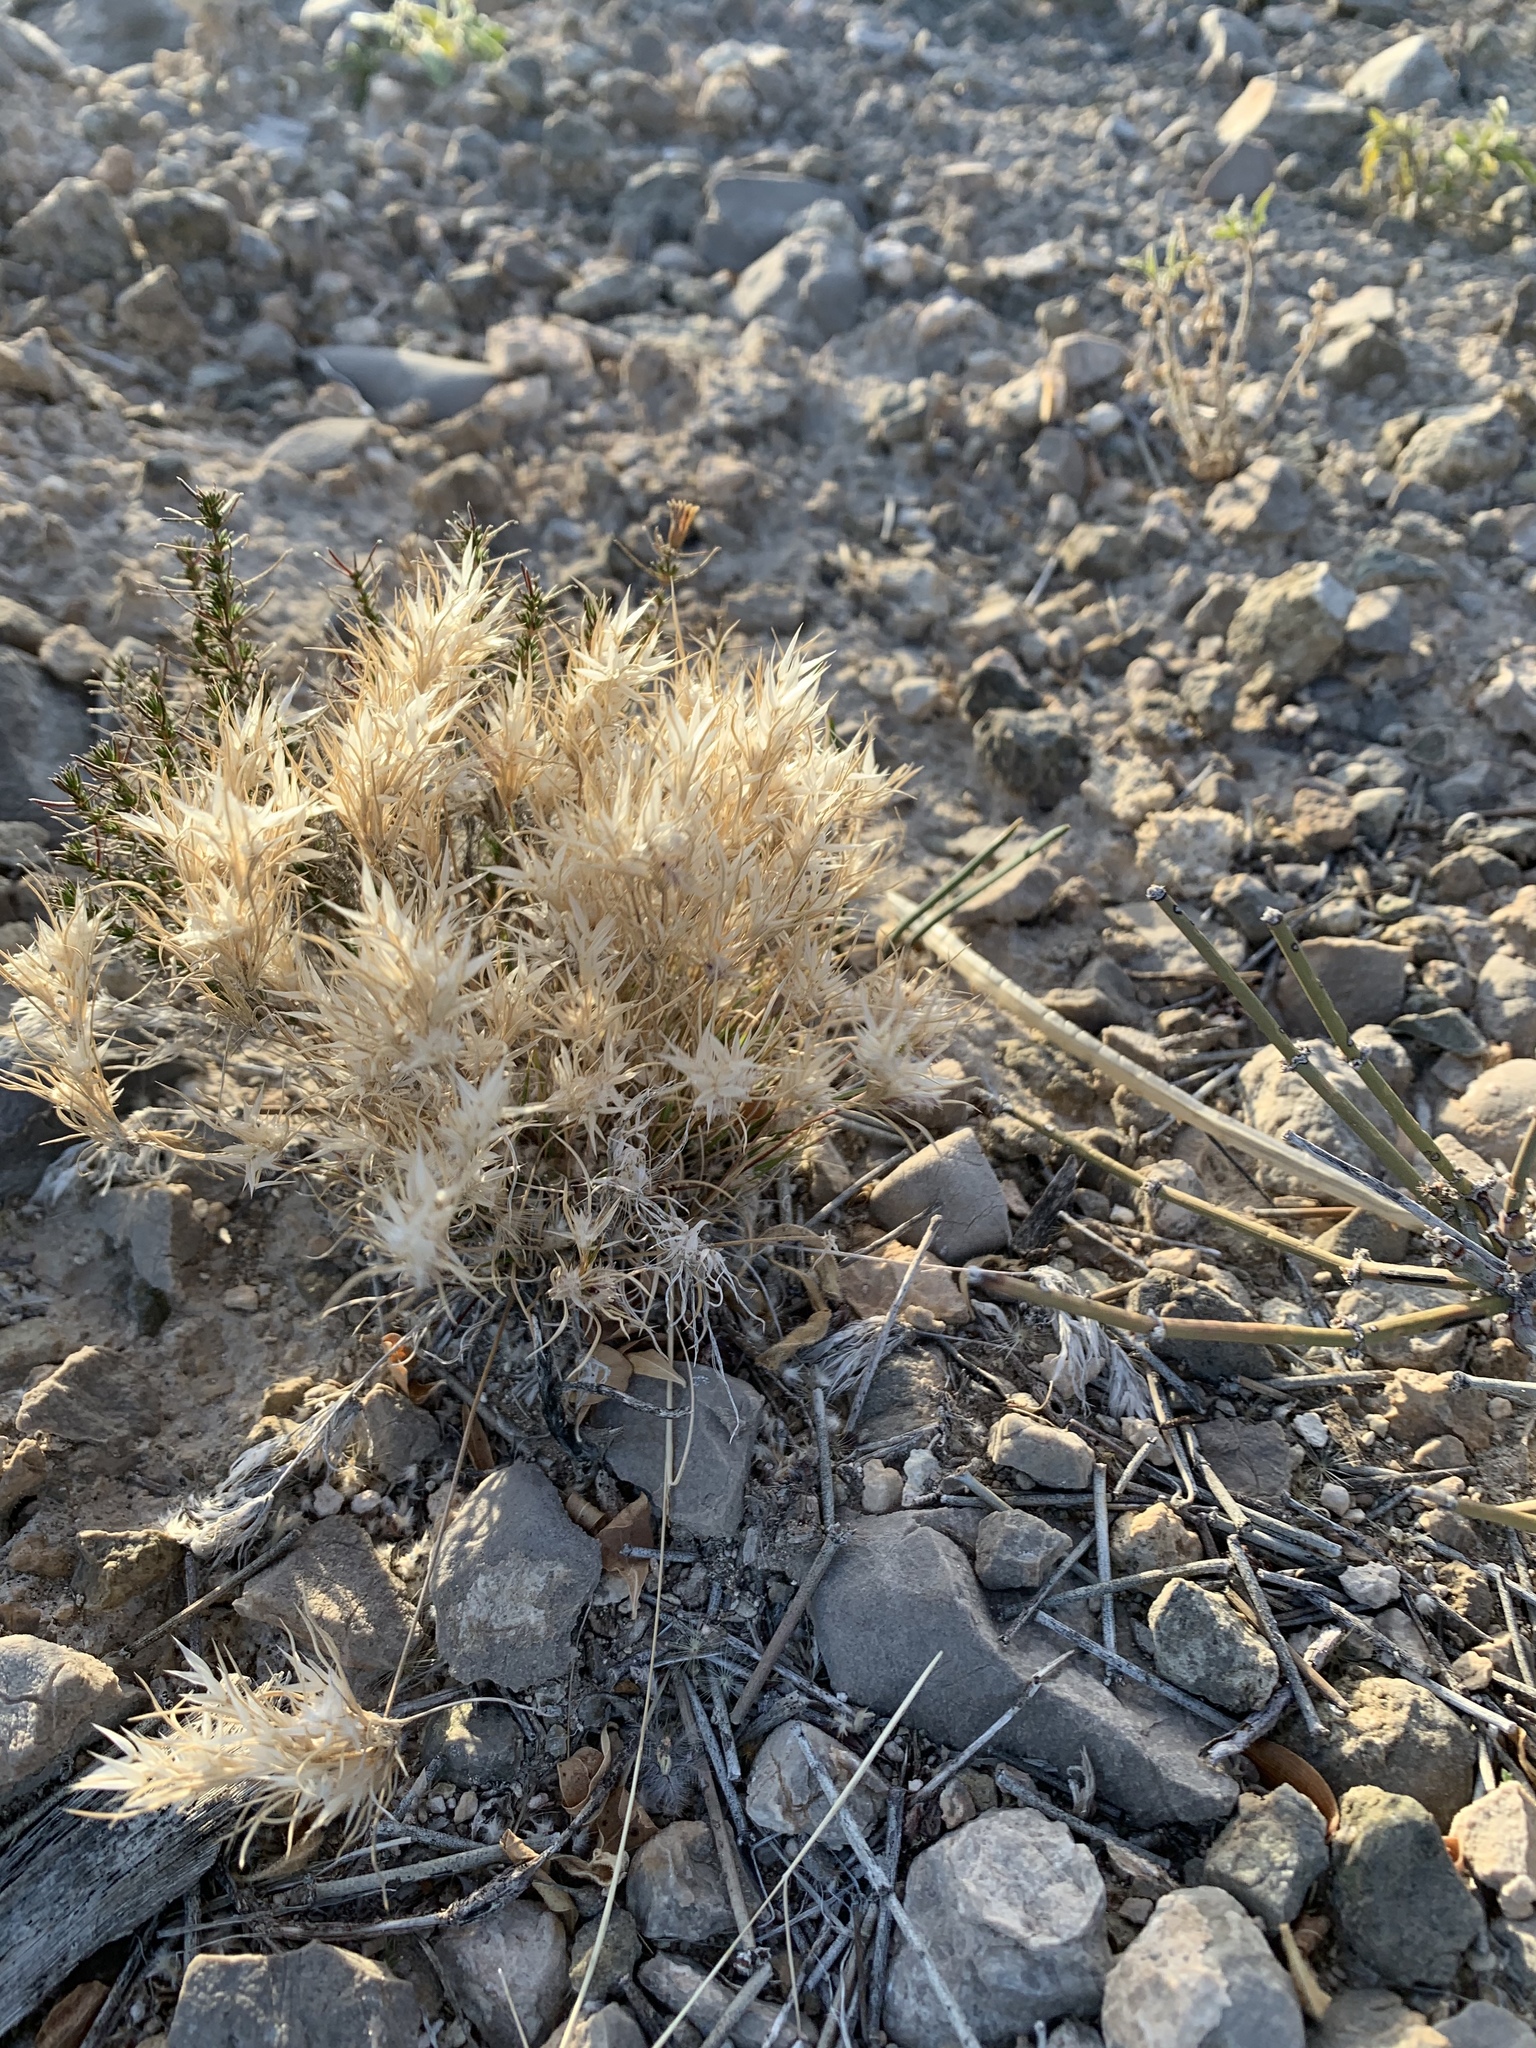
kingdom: Plantae
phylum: Tracheophyta
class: Liliopsida
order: Poales
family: Poaceae
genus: Dasyochloa
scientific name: Dasyochloa pulchella
